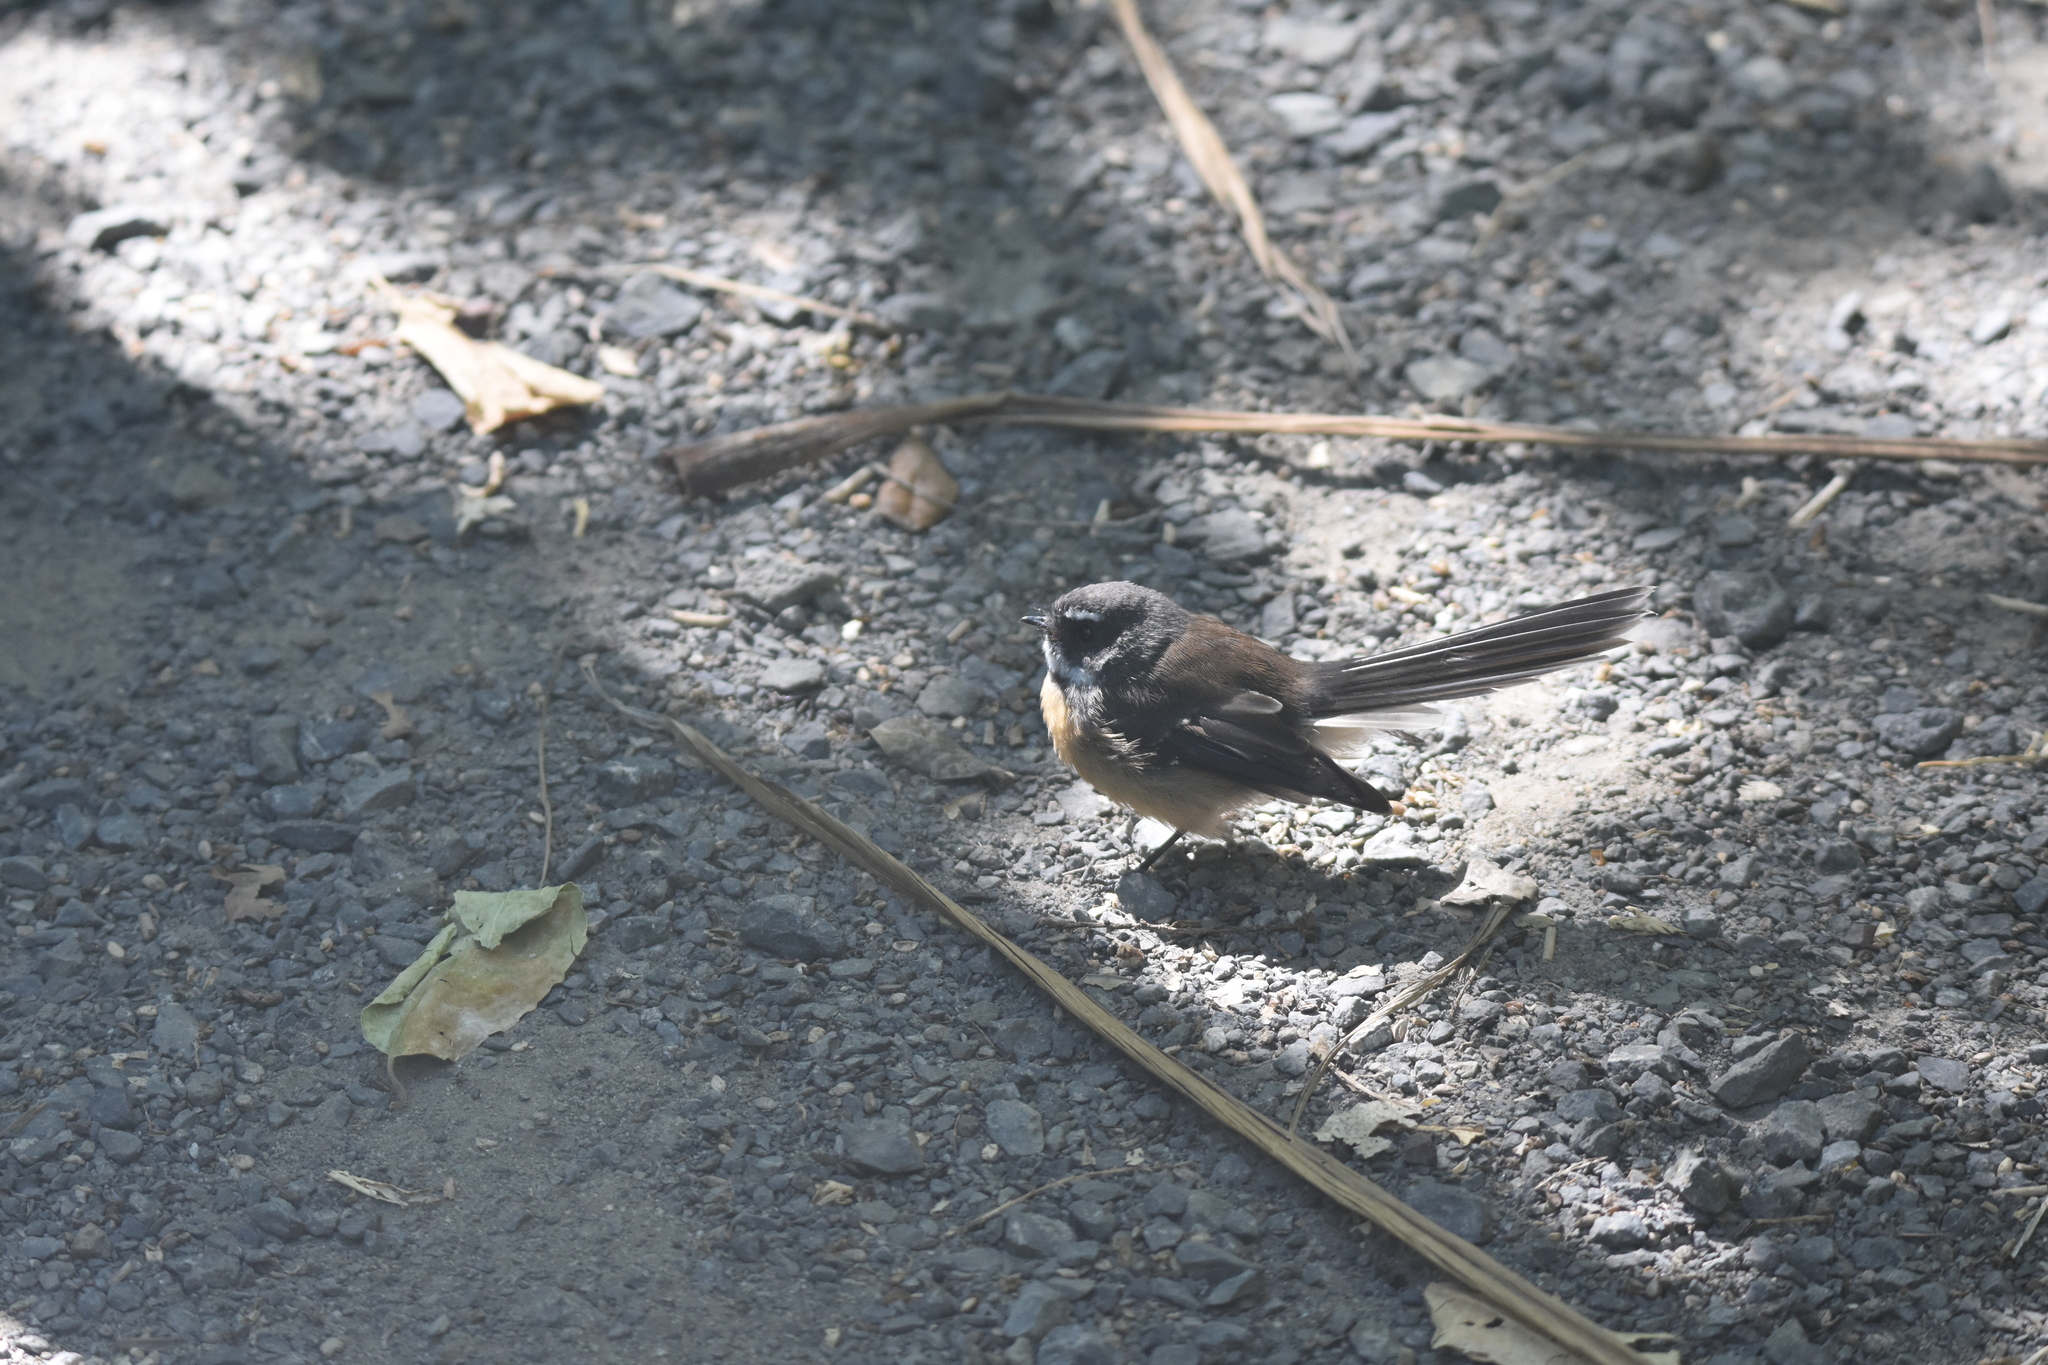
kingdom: Animalia
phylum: Chordata
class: Aves
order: Passeriformes
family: Rhipiduridae
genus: Rhipidura
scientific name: Rhipidura fuliginosa
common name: New zealand fantail
